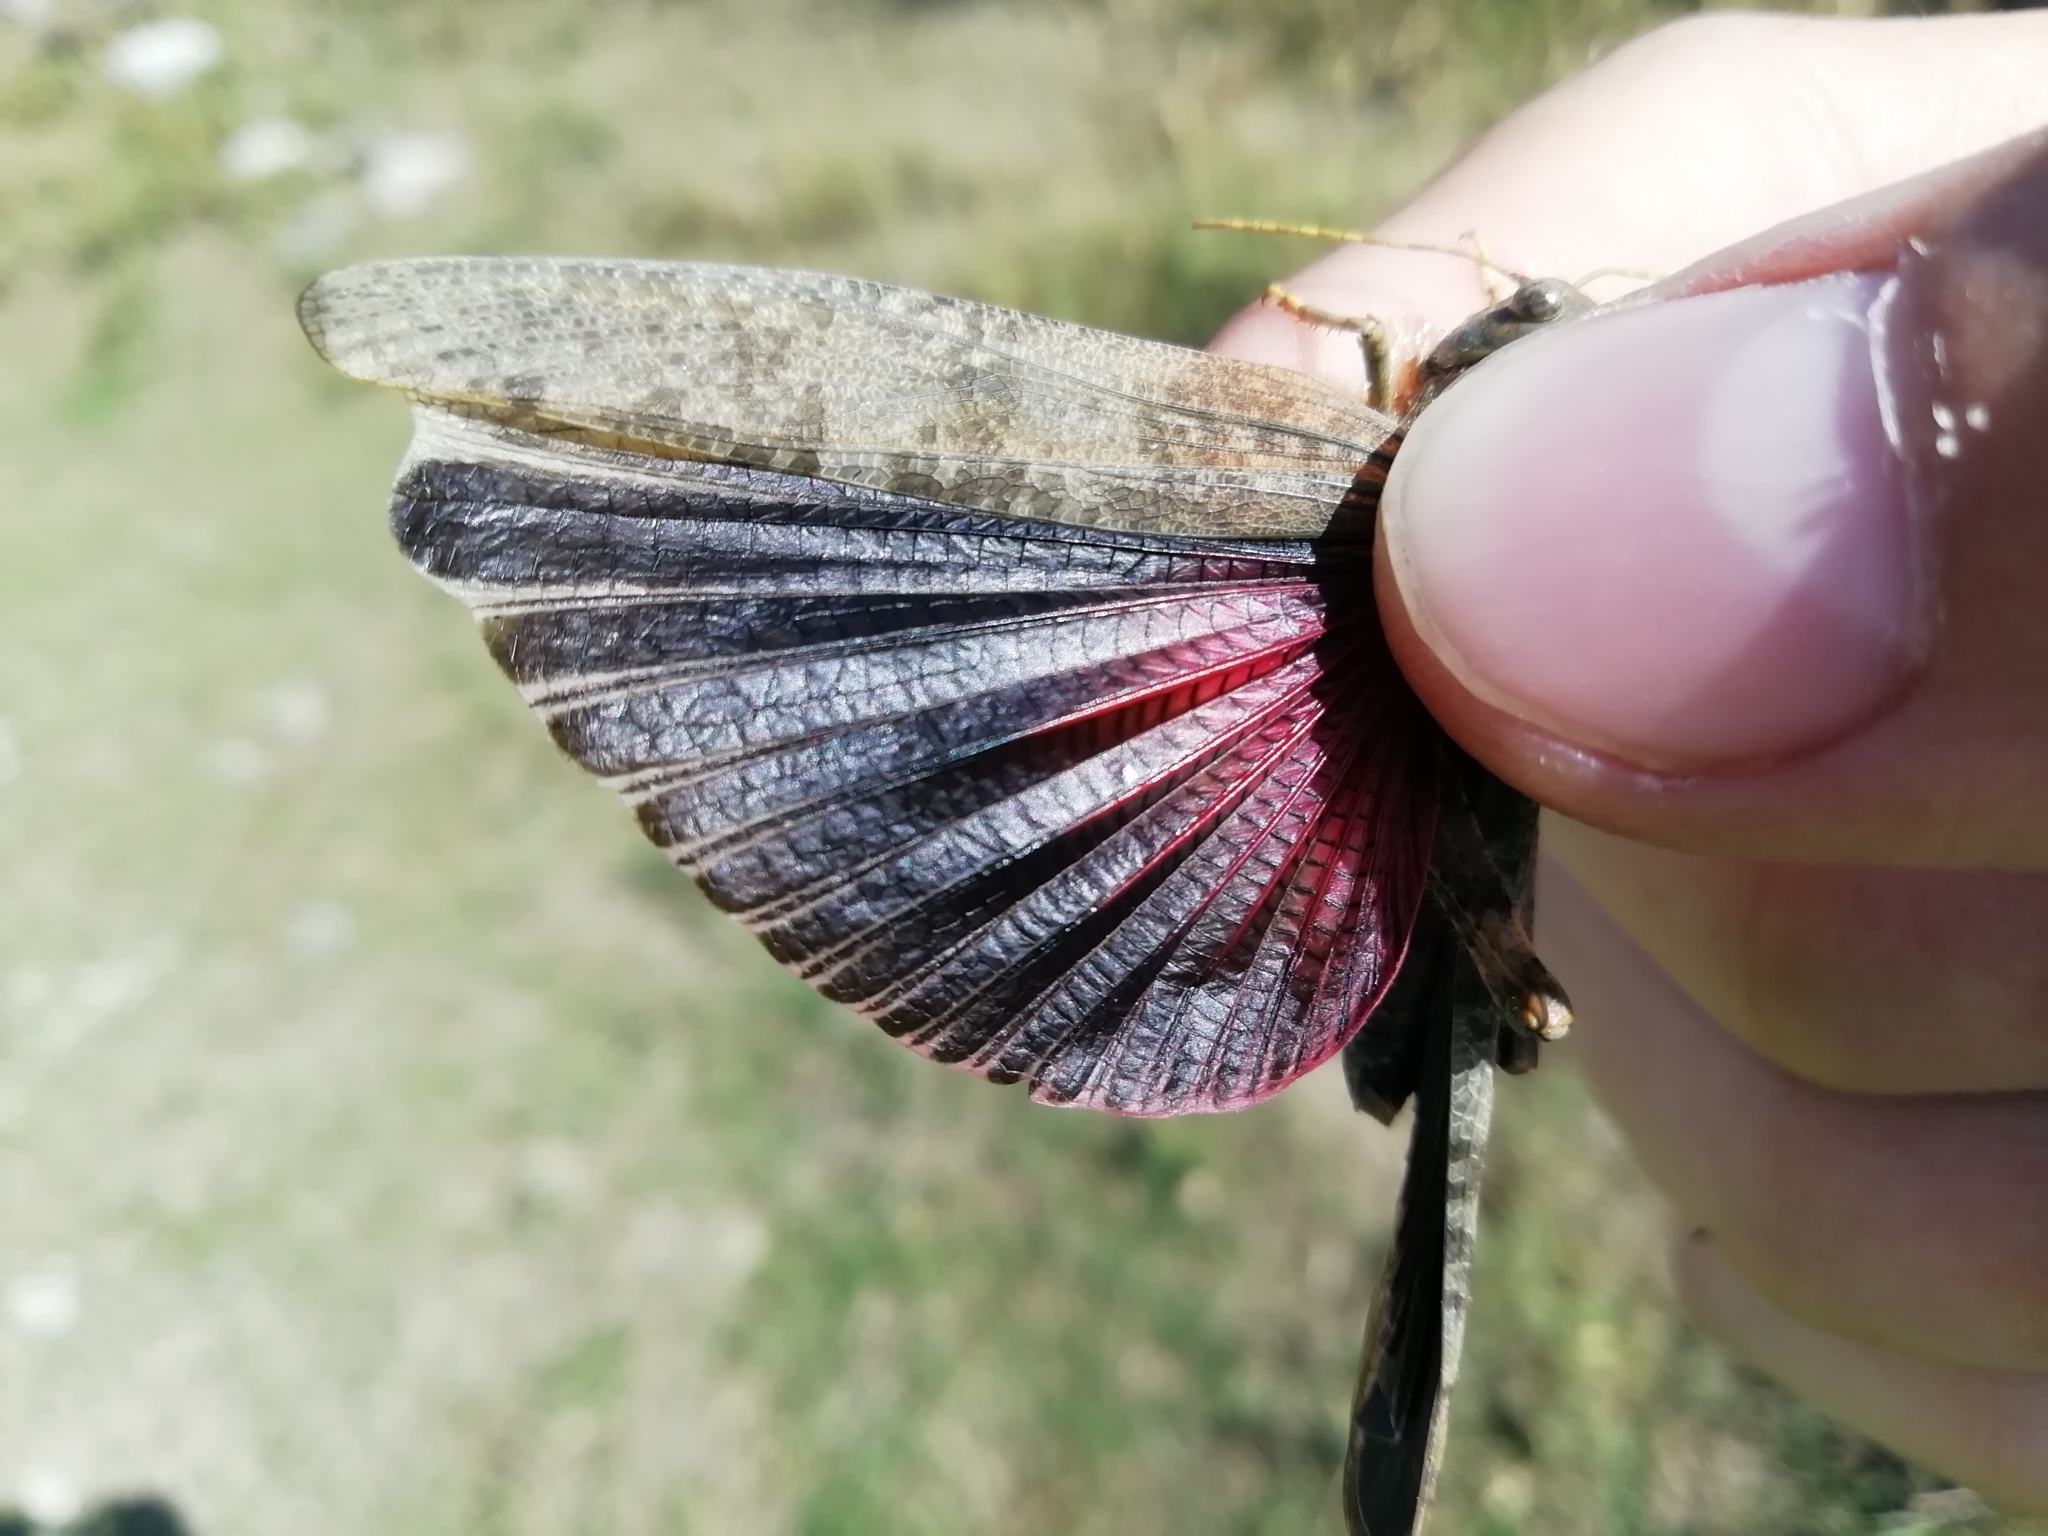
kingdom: Animalia
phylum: Arthropoda
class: Insecta
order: Orthoptera
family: Acrididae
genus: Bryodema
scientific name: Bryodema gebleri
